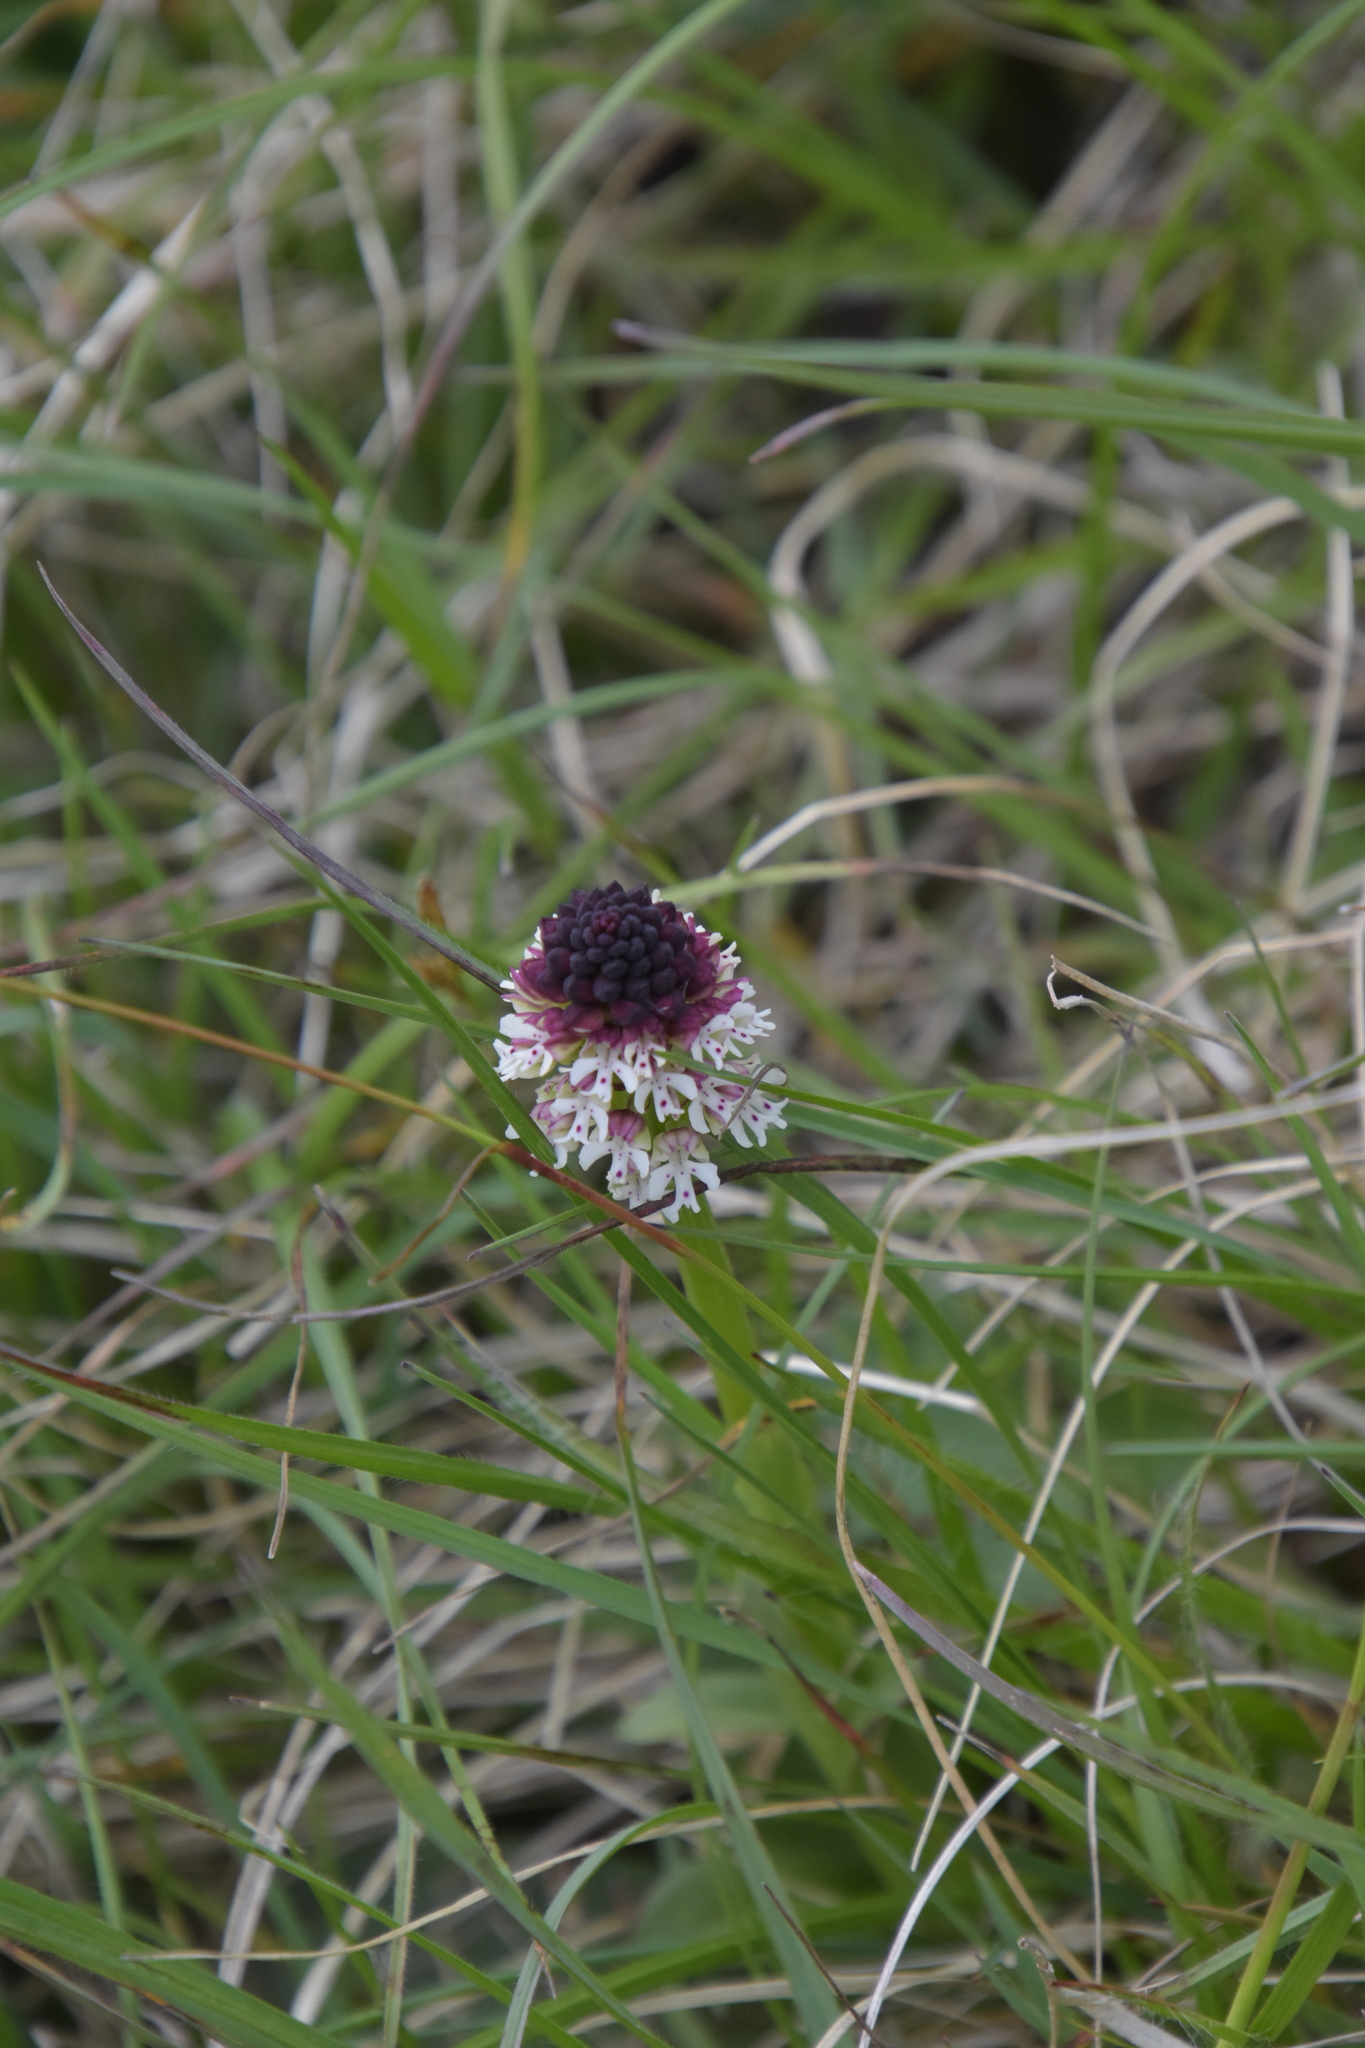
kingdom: Plantae
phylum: Tracheophyta
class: Liliopsida
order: Asparagales
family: Orchidaceae
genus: Neotinea
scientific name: Neotinea ustulata
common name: Burnt orchid
